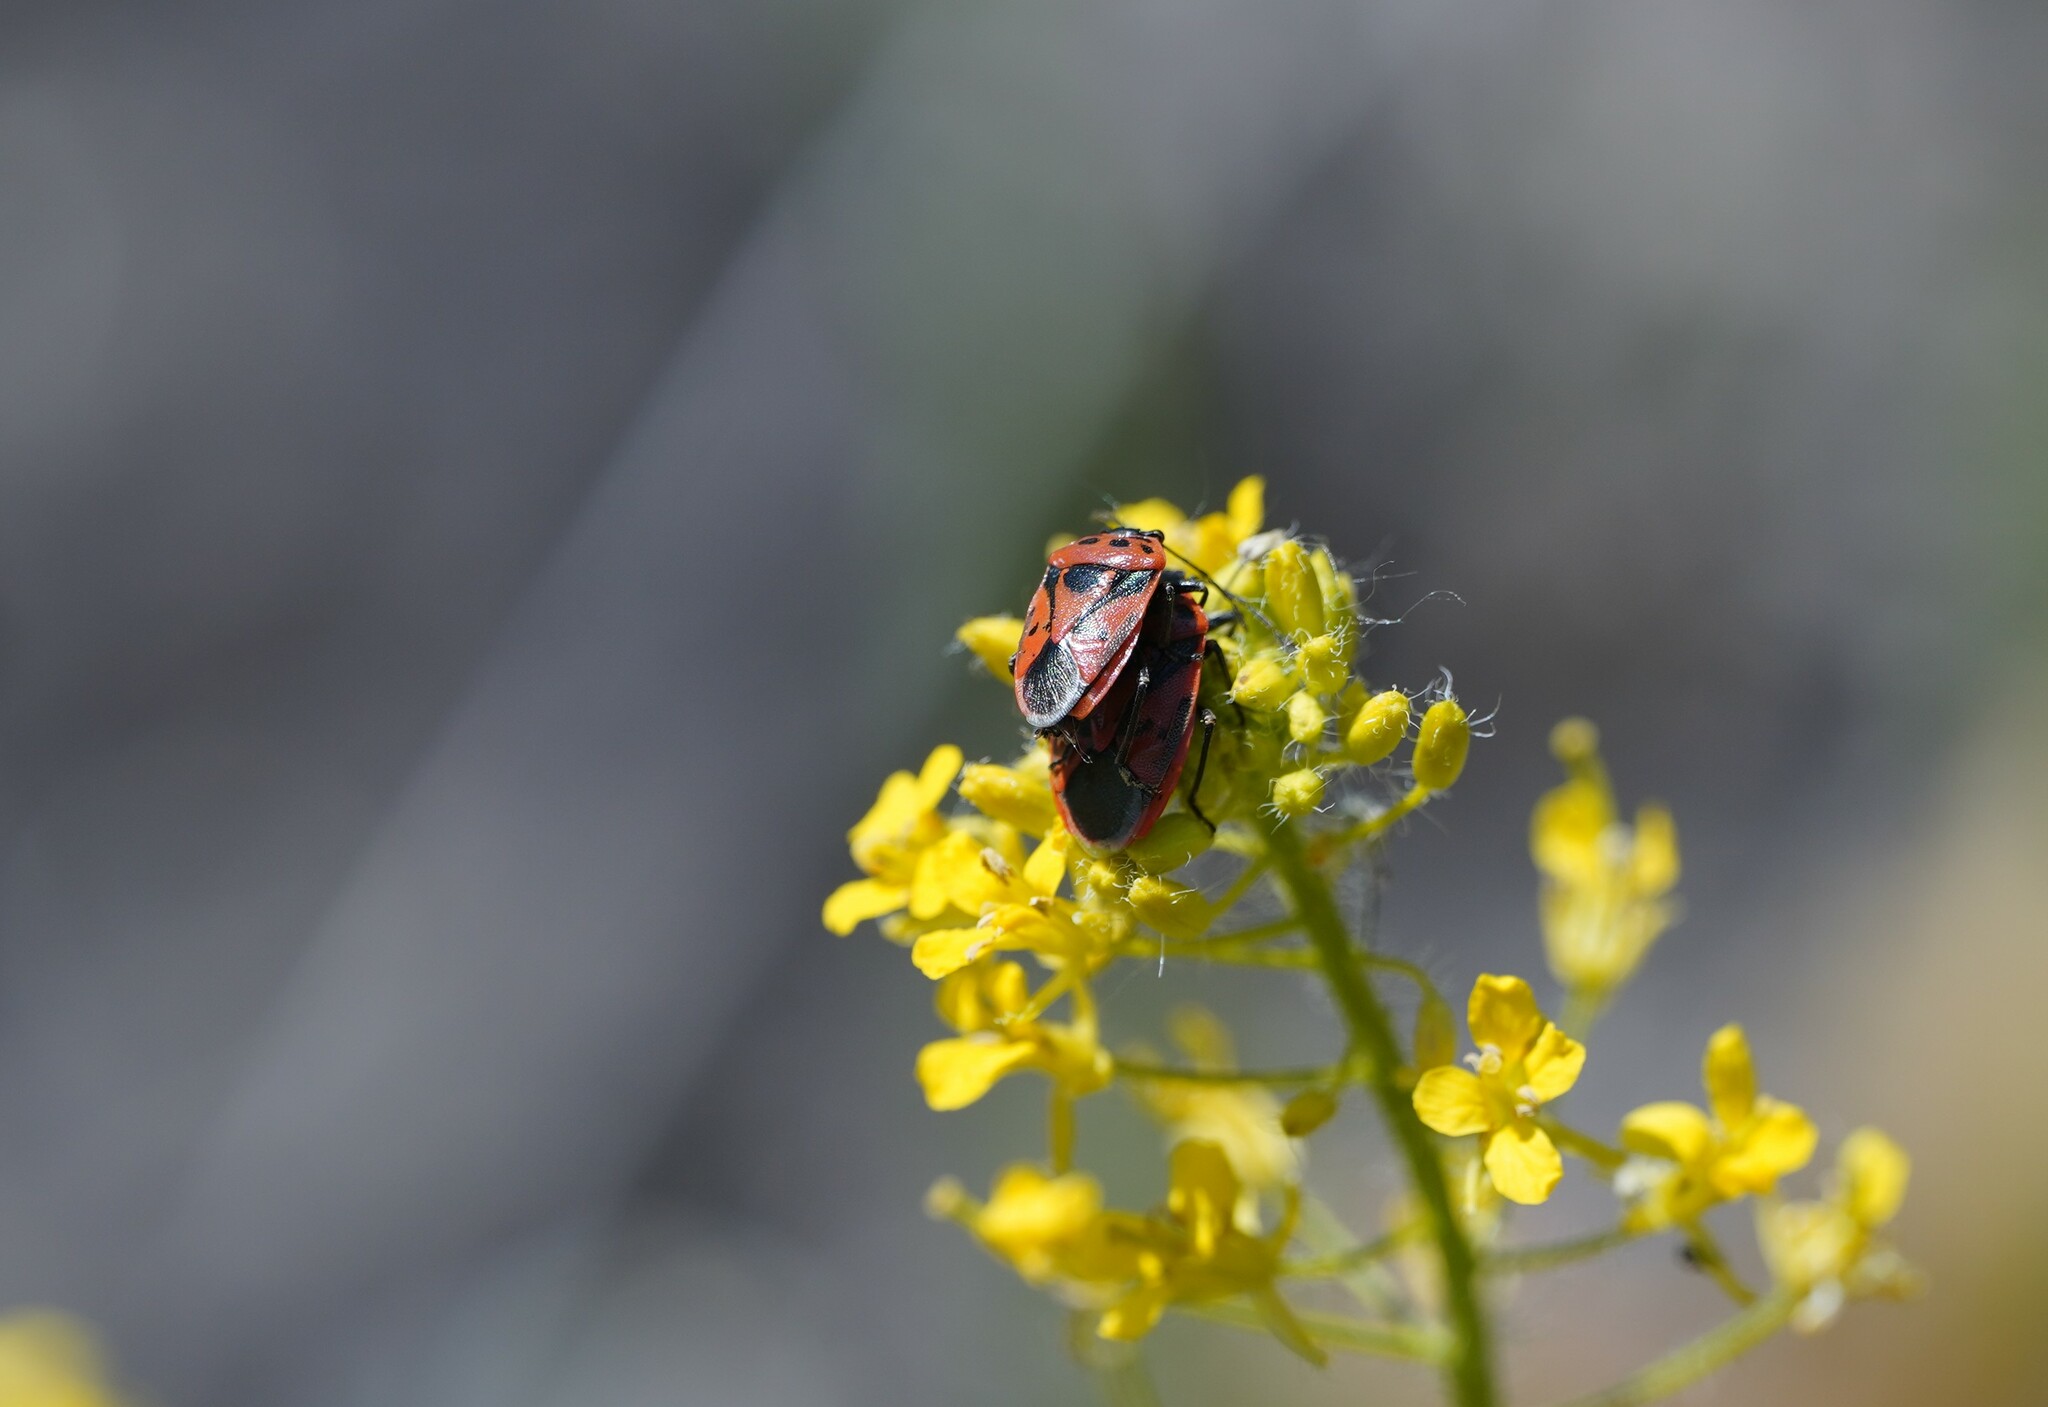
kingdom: Animalia
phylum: Arthropoda
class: Insecta
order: Hemiptera
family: Pentatomidae
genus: Eurydema
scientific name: Eurydema ornata
